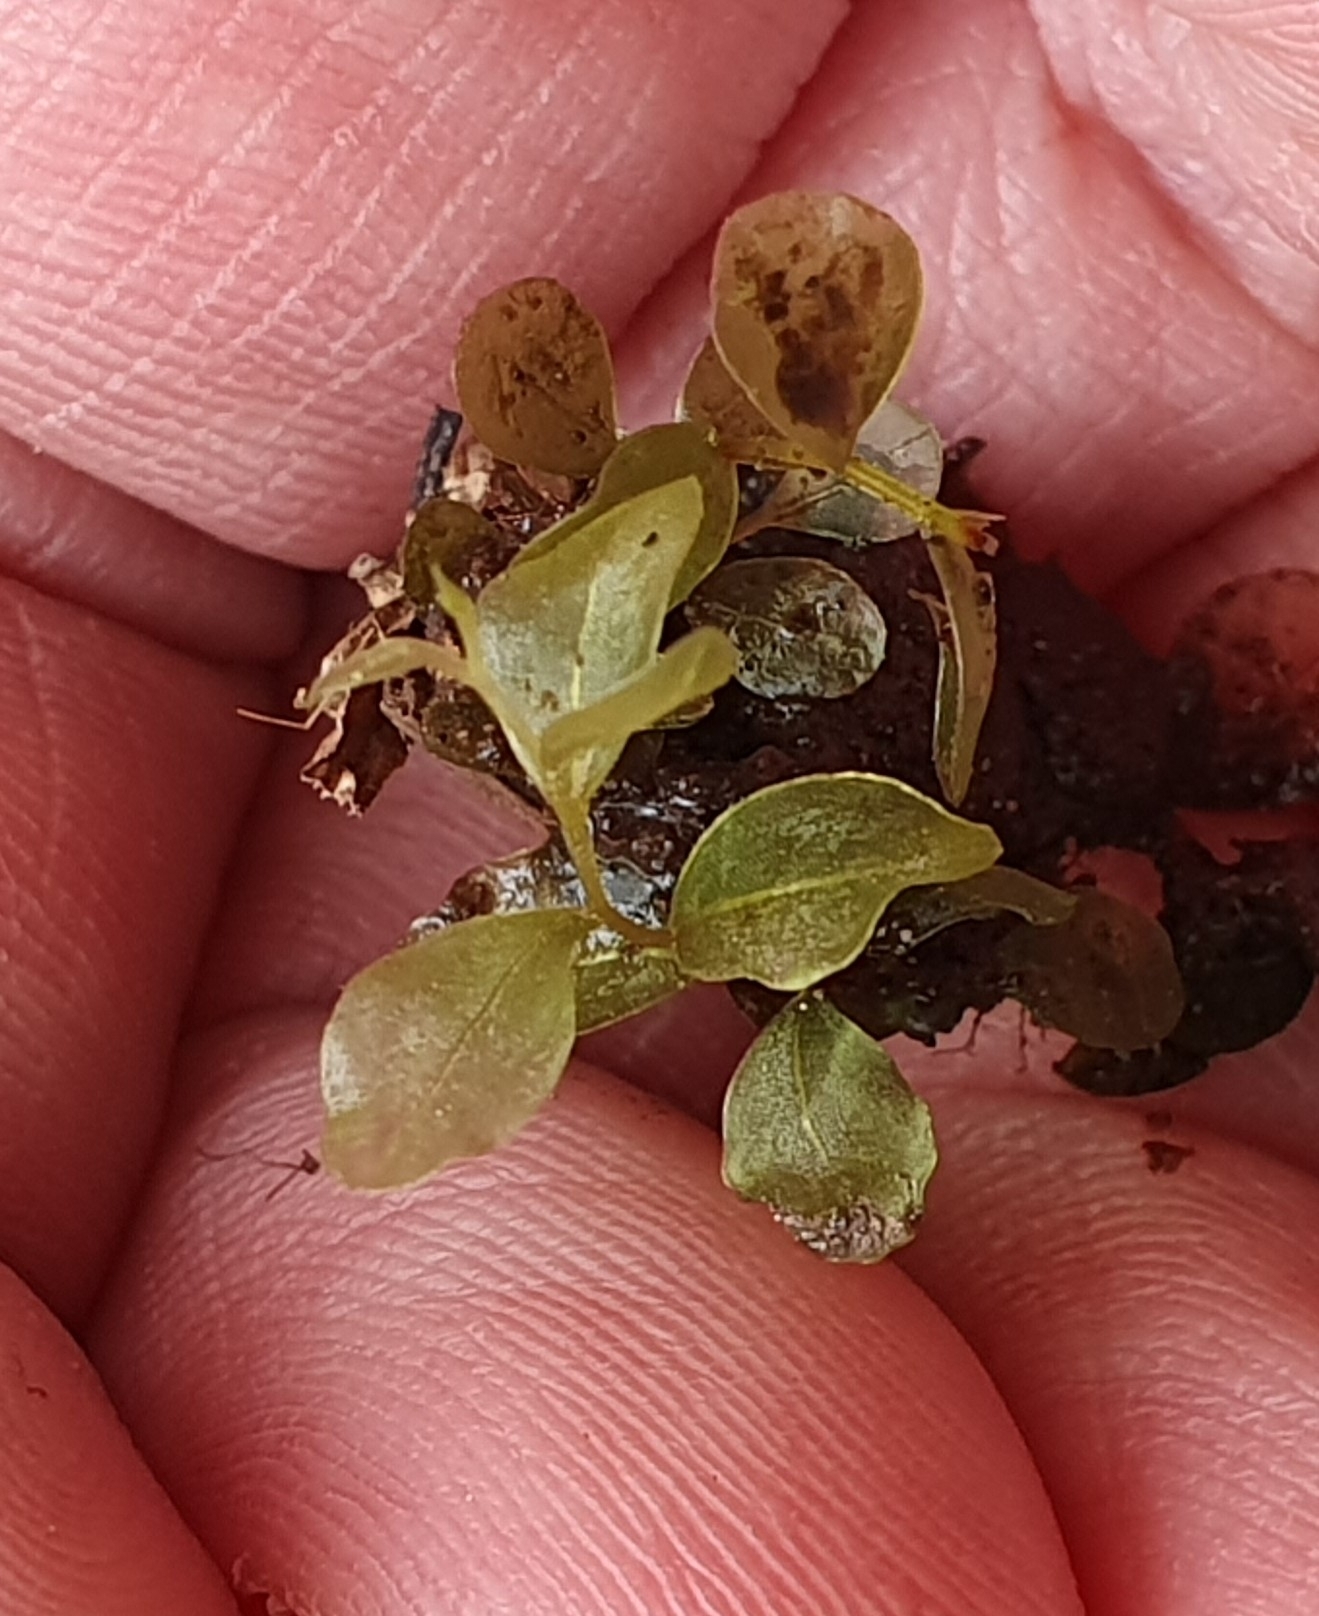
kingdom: Plantae
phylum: Bryophyta
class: Bryopsida
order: Bryales
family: Mniaceae
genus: Rhizomnium
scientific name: Rhizomnium punctatum
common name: Dotted leafy moss
